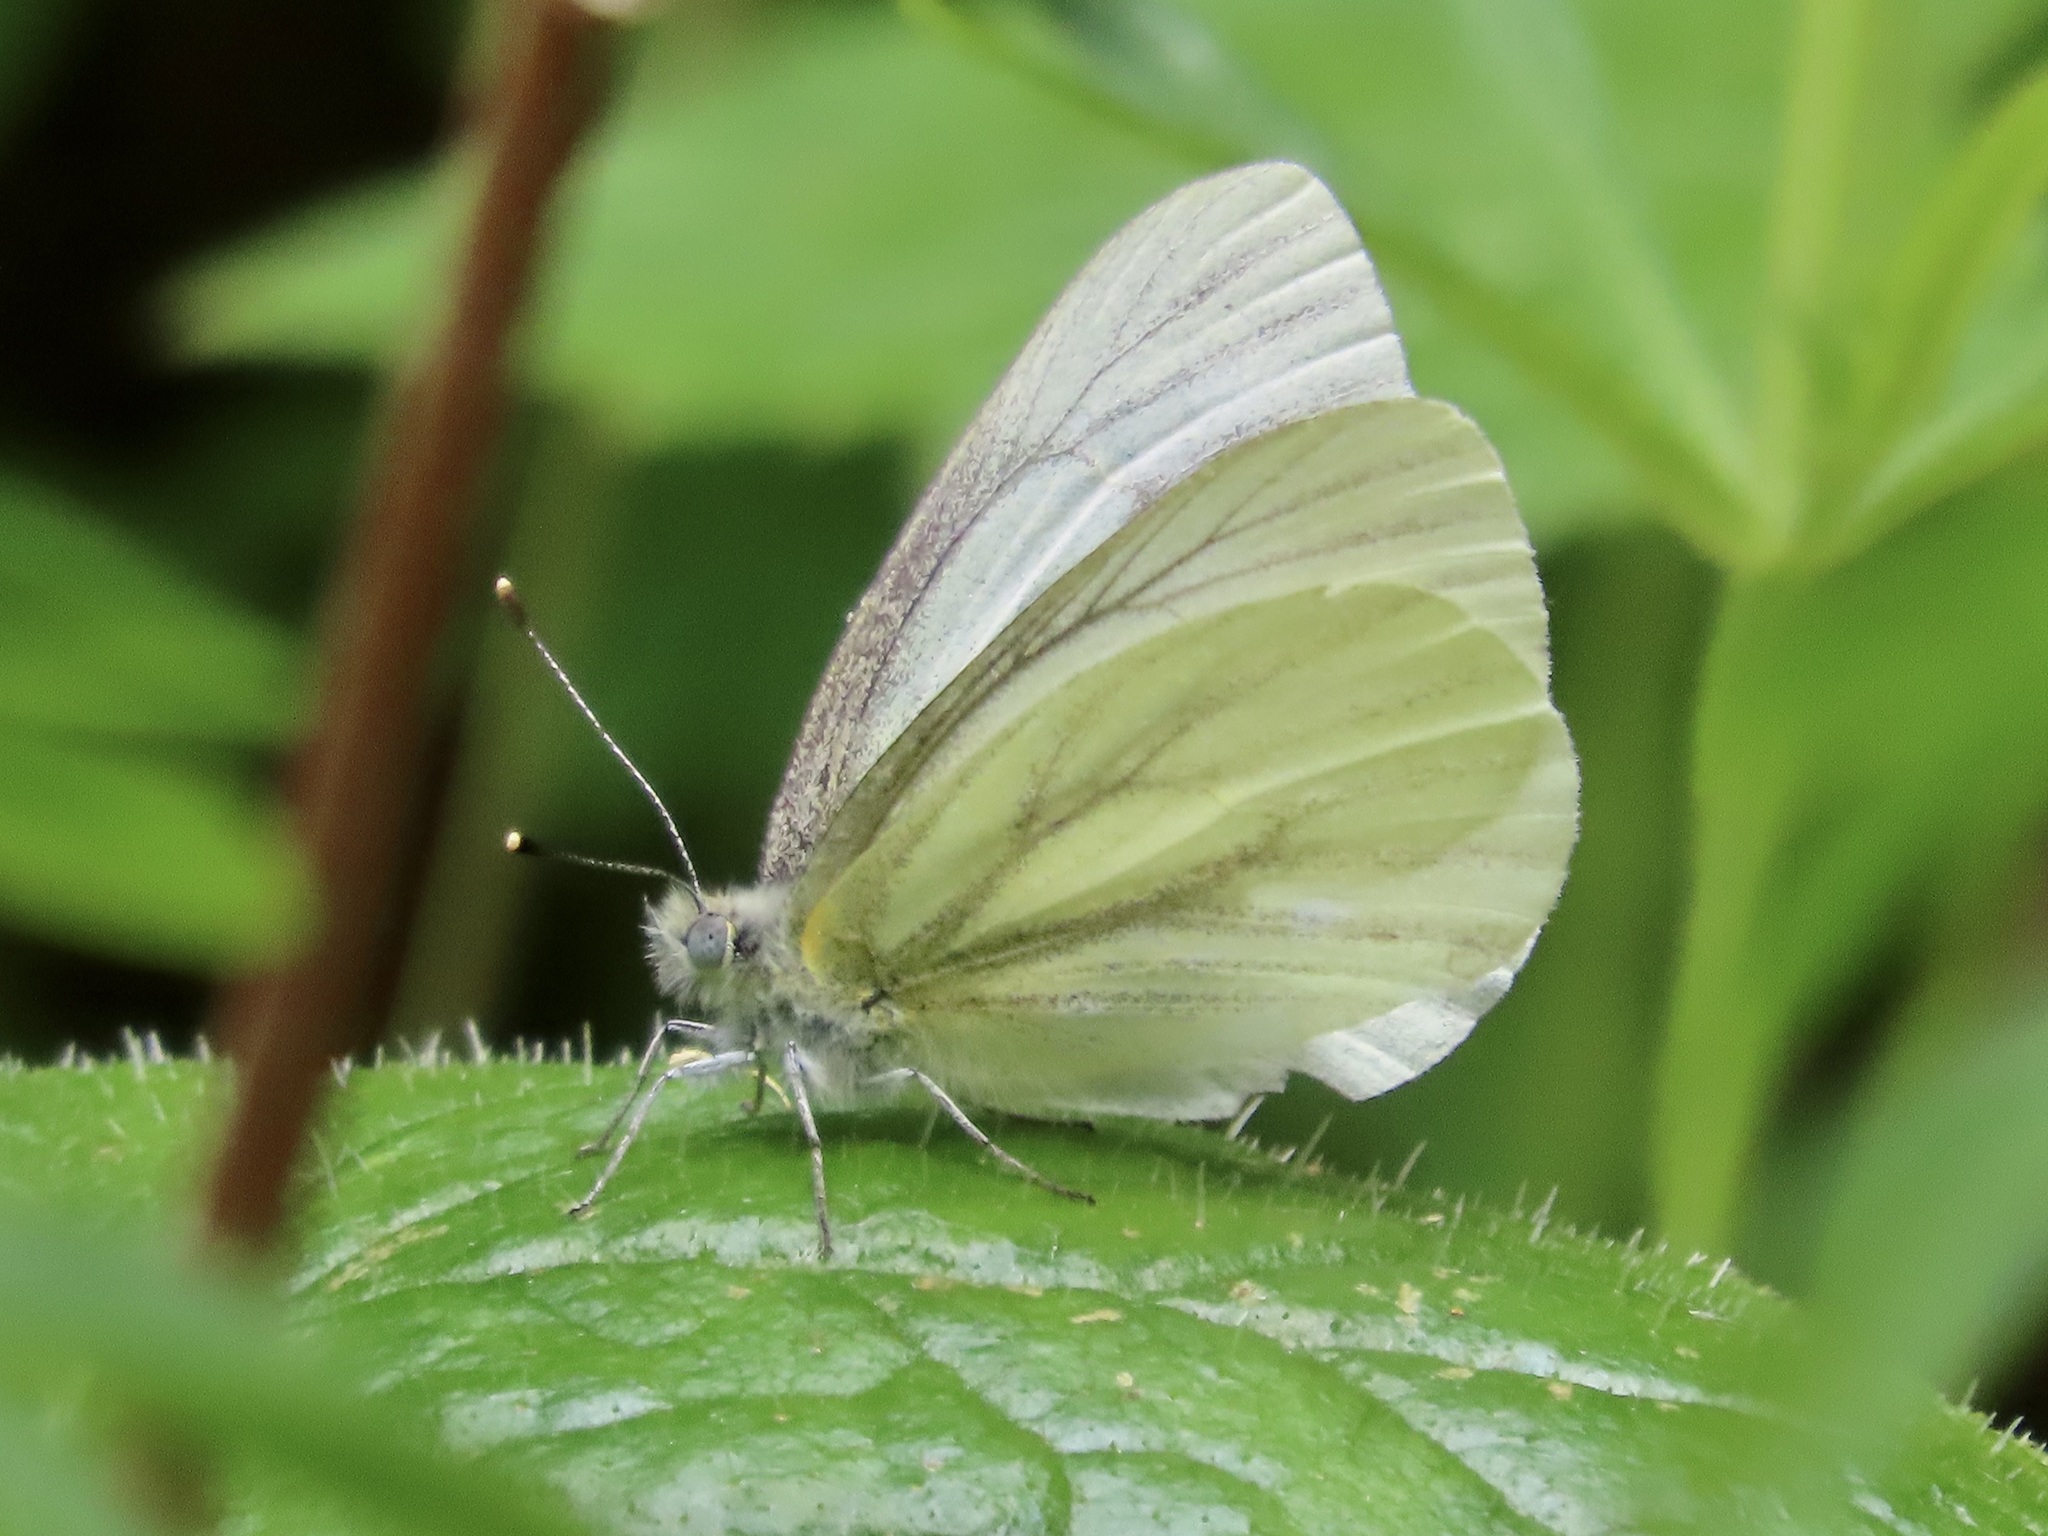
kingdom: Animalia
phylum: Arthropoda
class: Insecta
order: Lepidoptera
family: Pieridae
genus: Pieris
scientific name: Pieris marginalis
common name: Margined white
